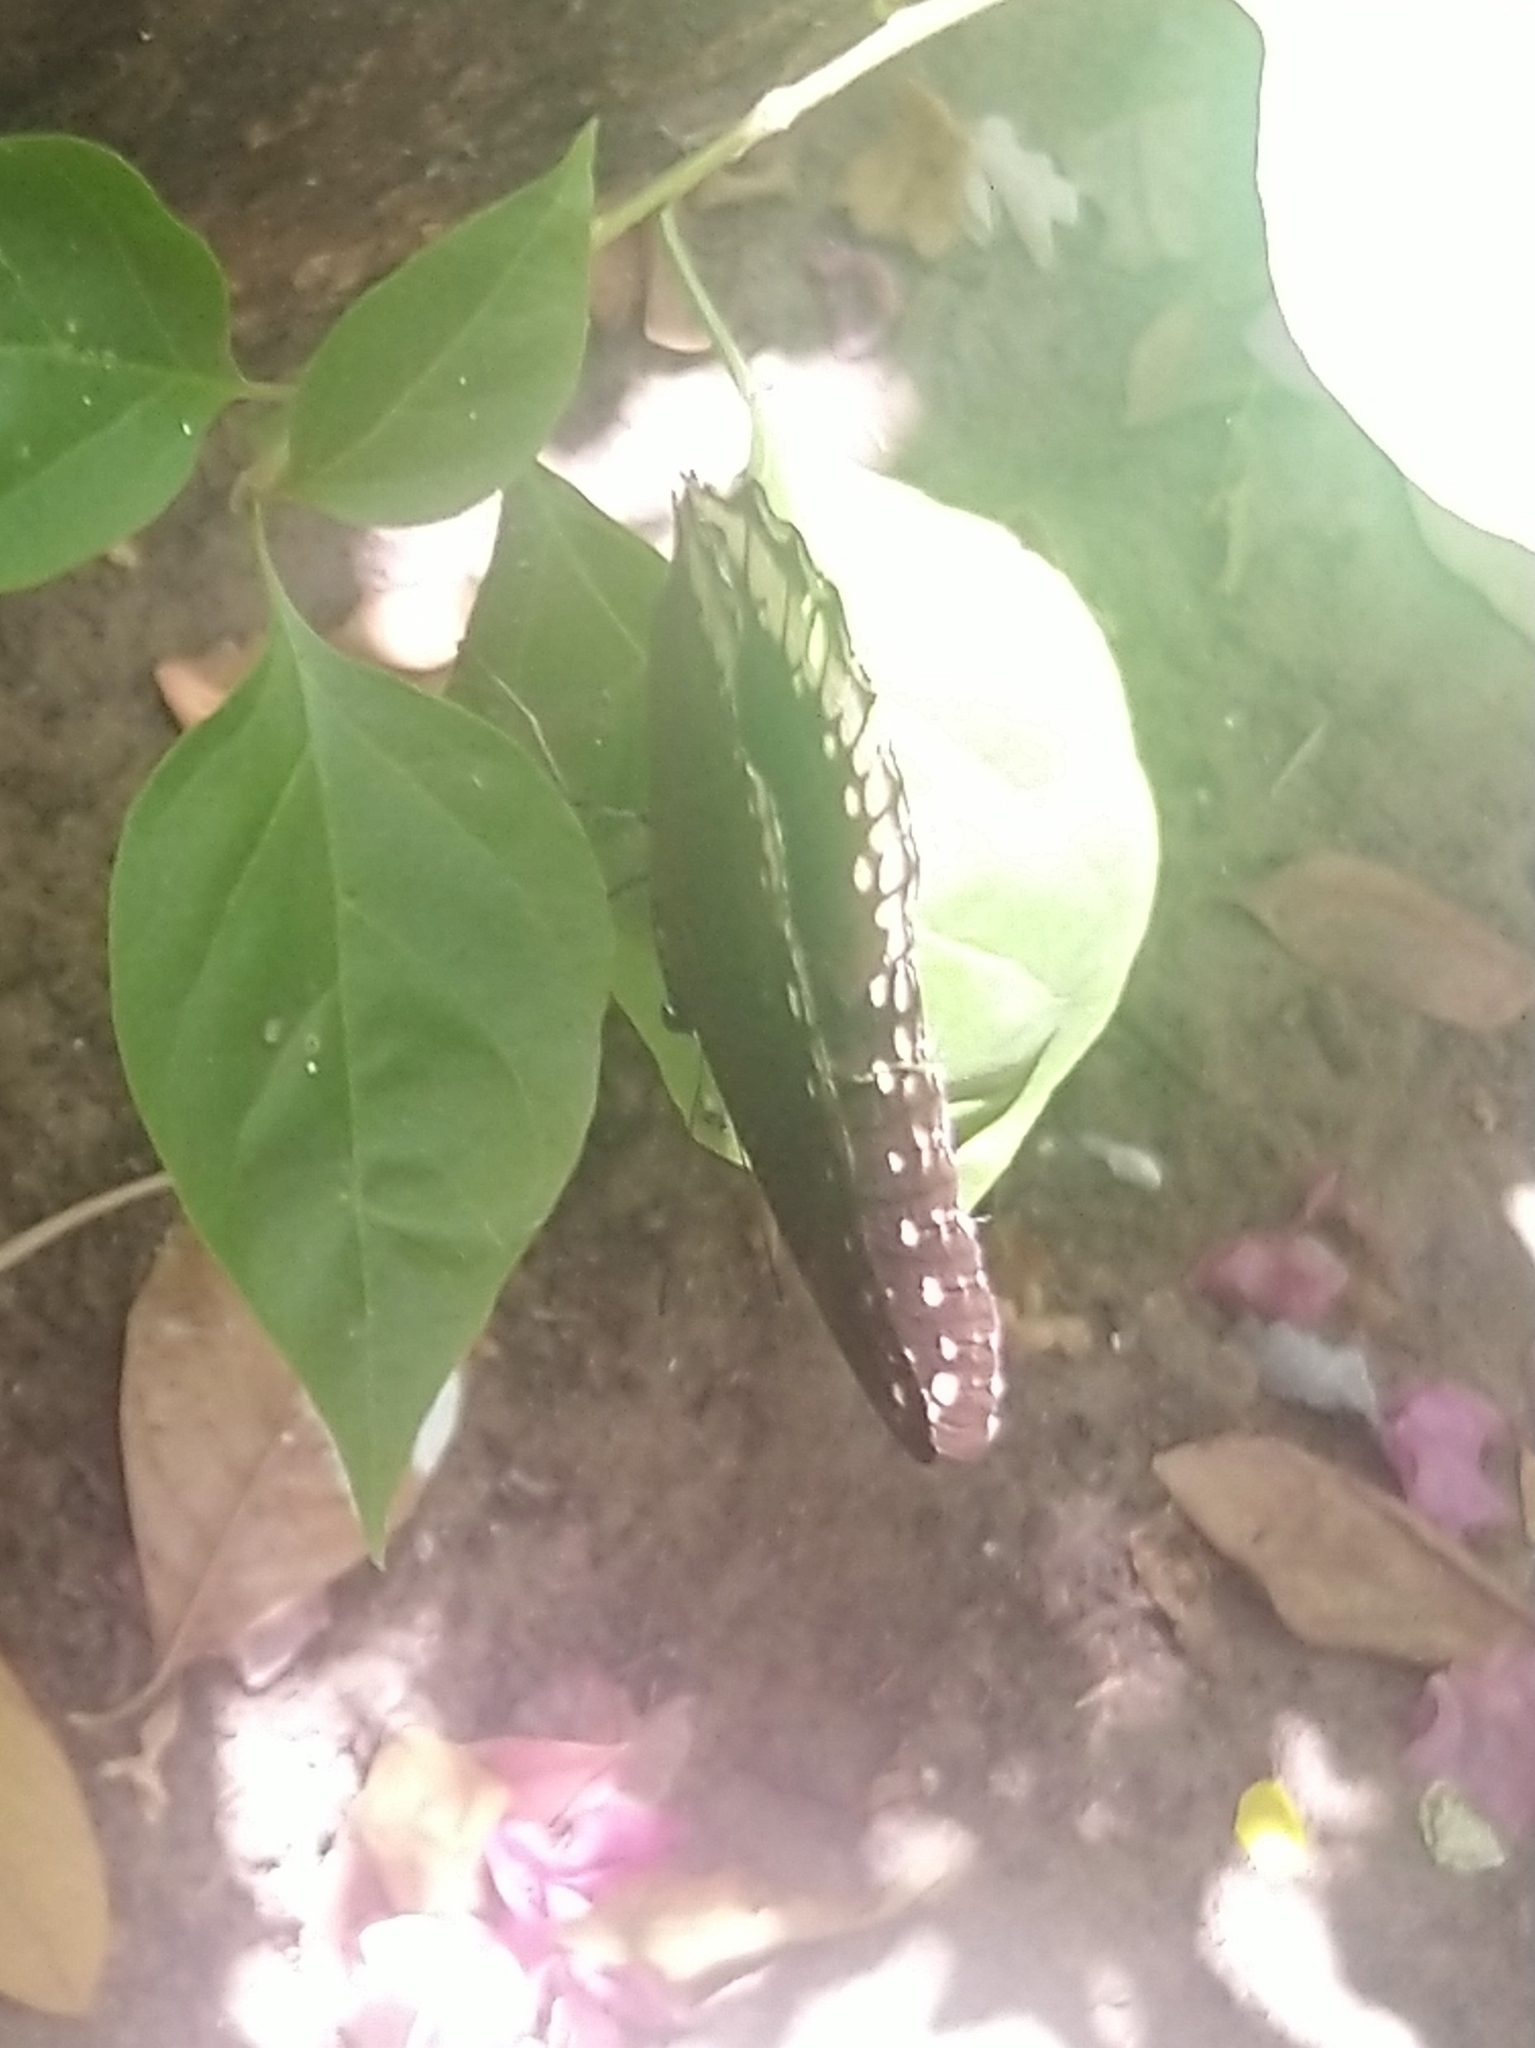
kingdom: Animalia
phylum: Arthropoda
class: Insecta
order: Lepidoptera
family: Nymphalidae
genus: Hypolimnas
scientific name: Hypolimnas bolina
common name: Great eggfly
